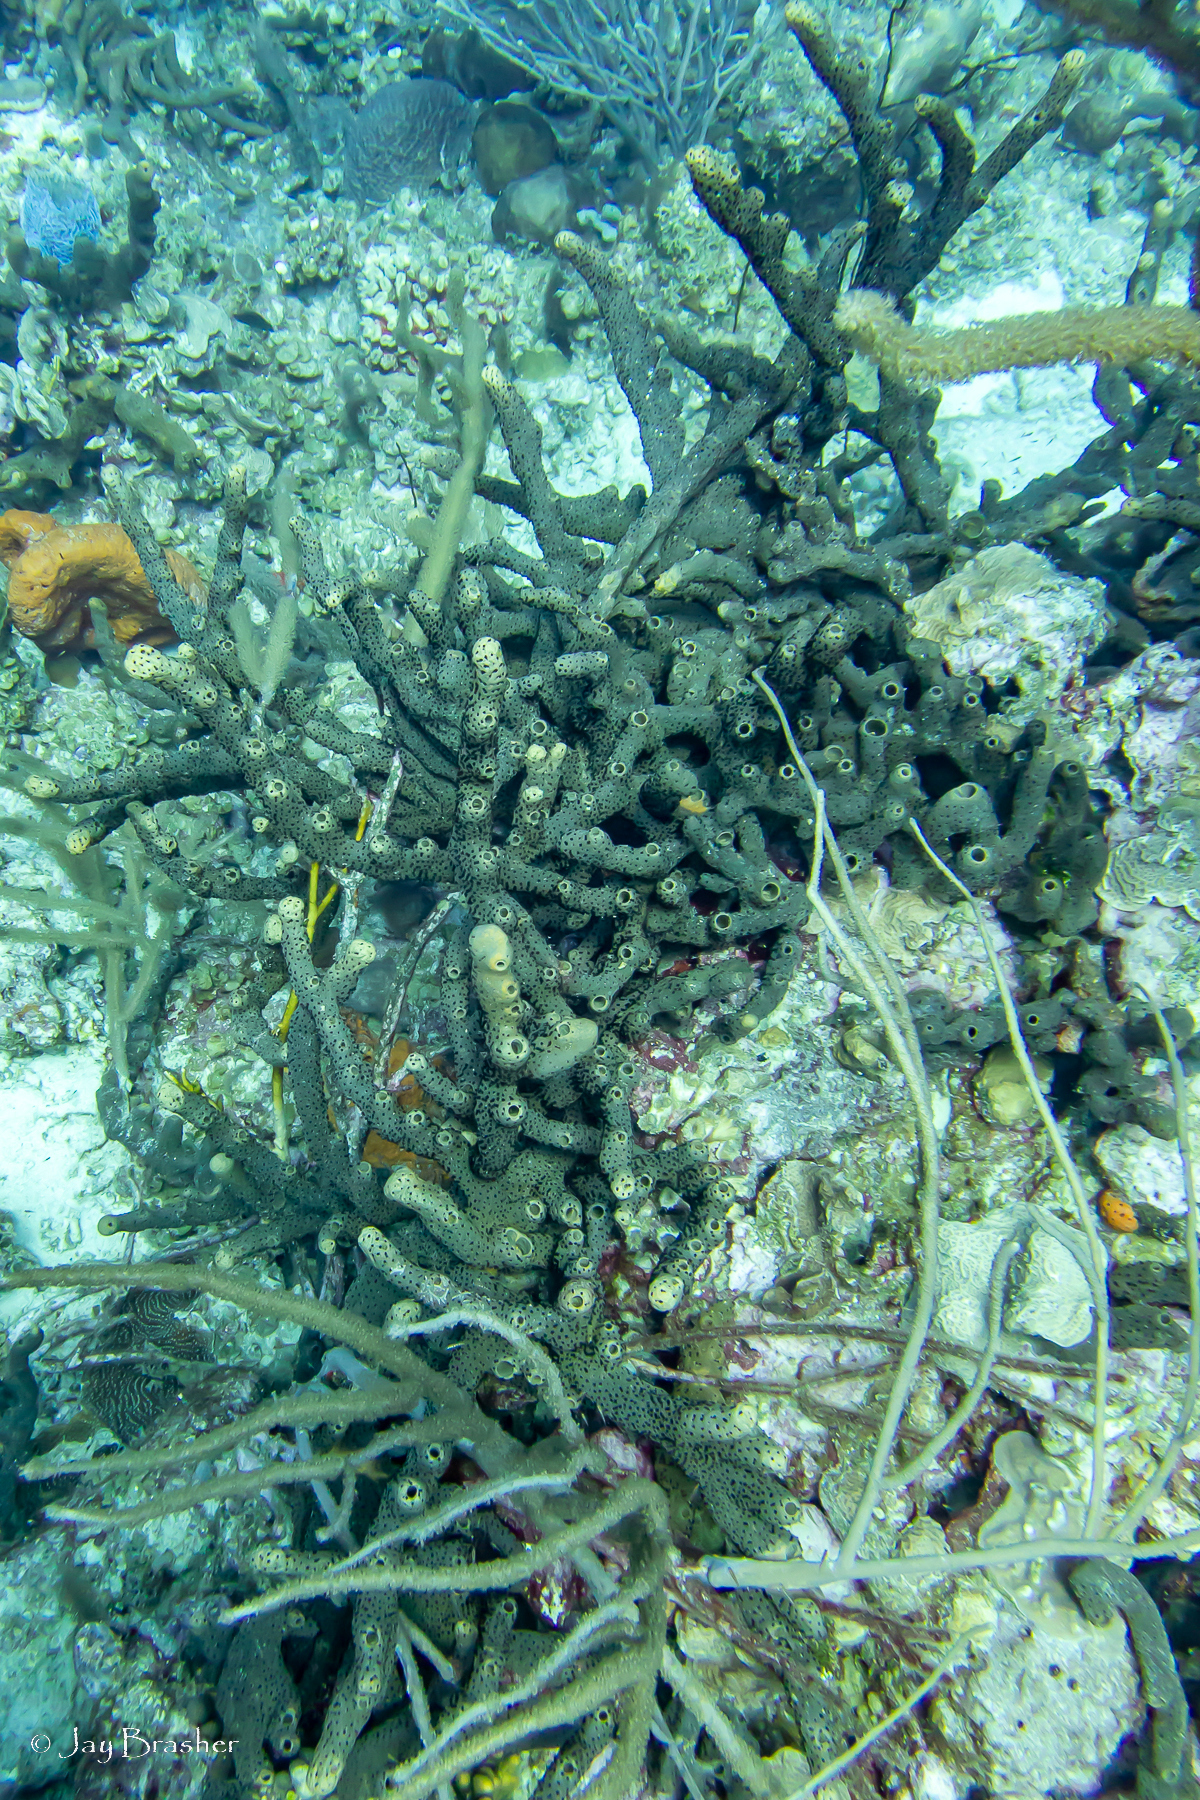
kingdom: Animalia
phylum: Porifera
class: Demospongiae
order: Agelasida
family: Agelasidae
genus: Agelas
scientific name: Agelas conifera
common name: Brown tube sponge
